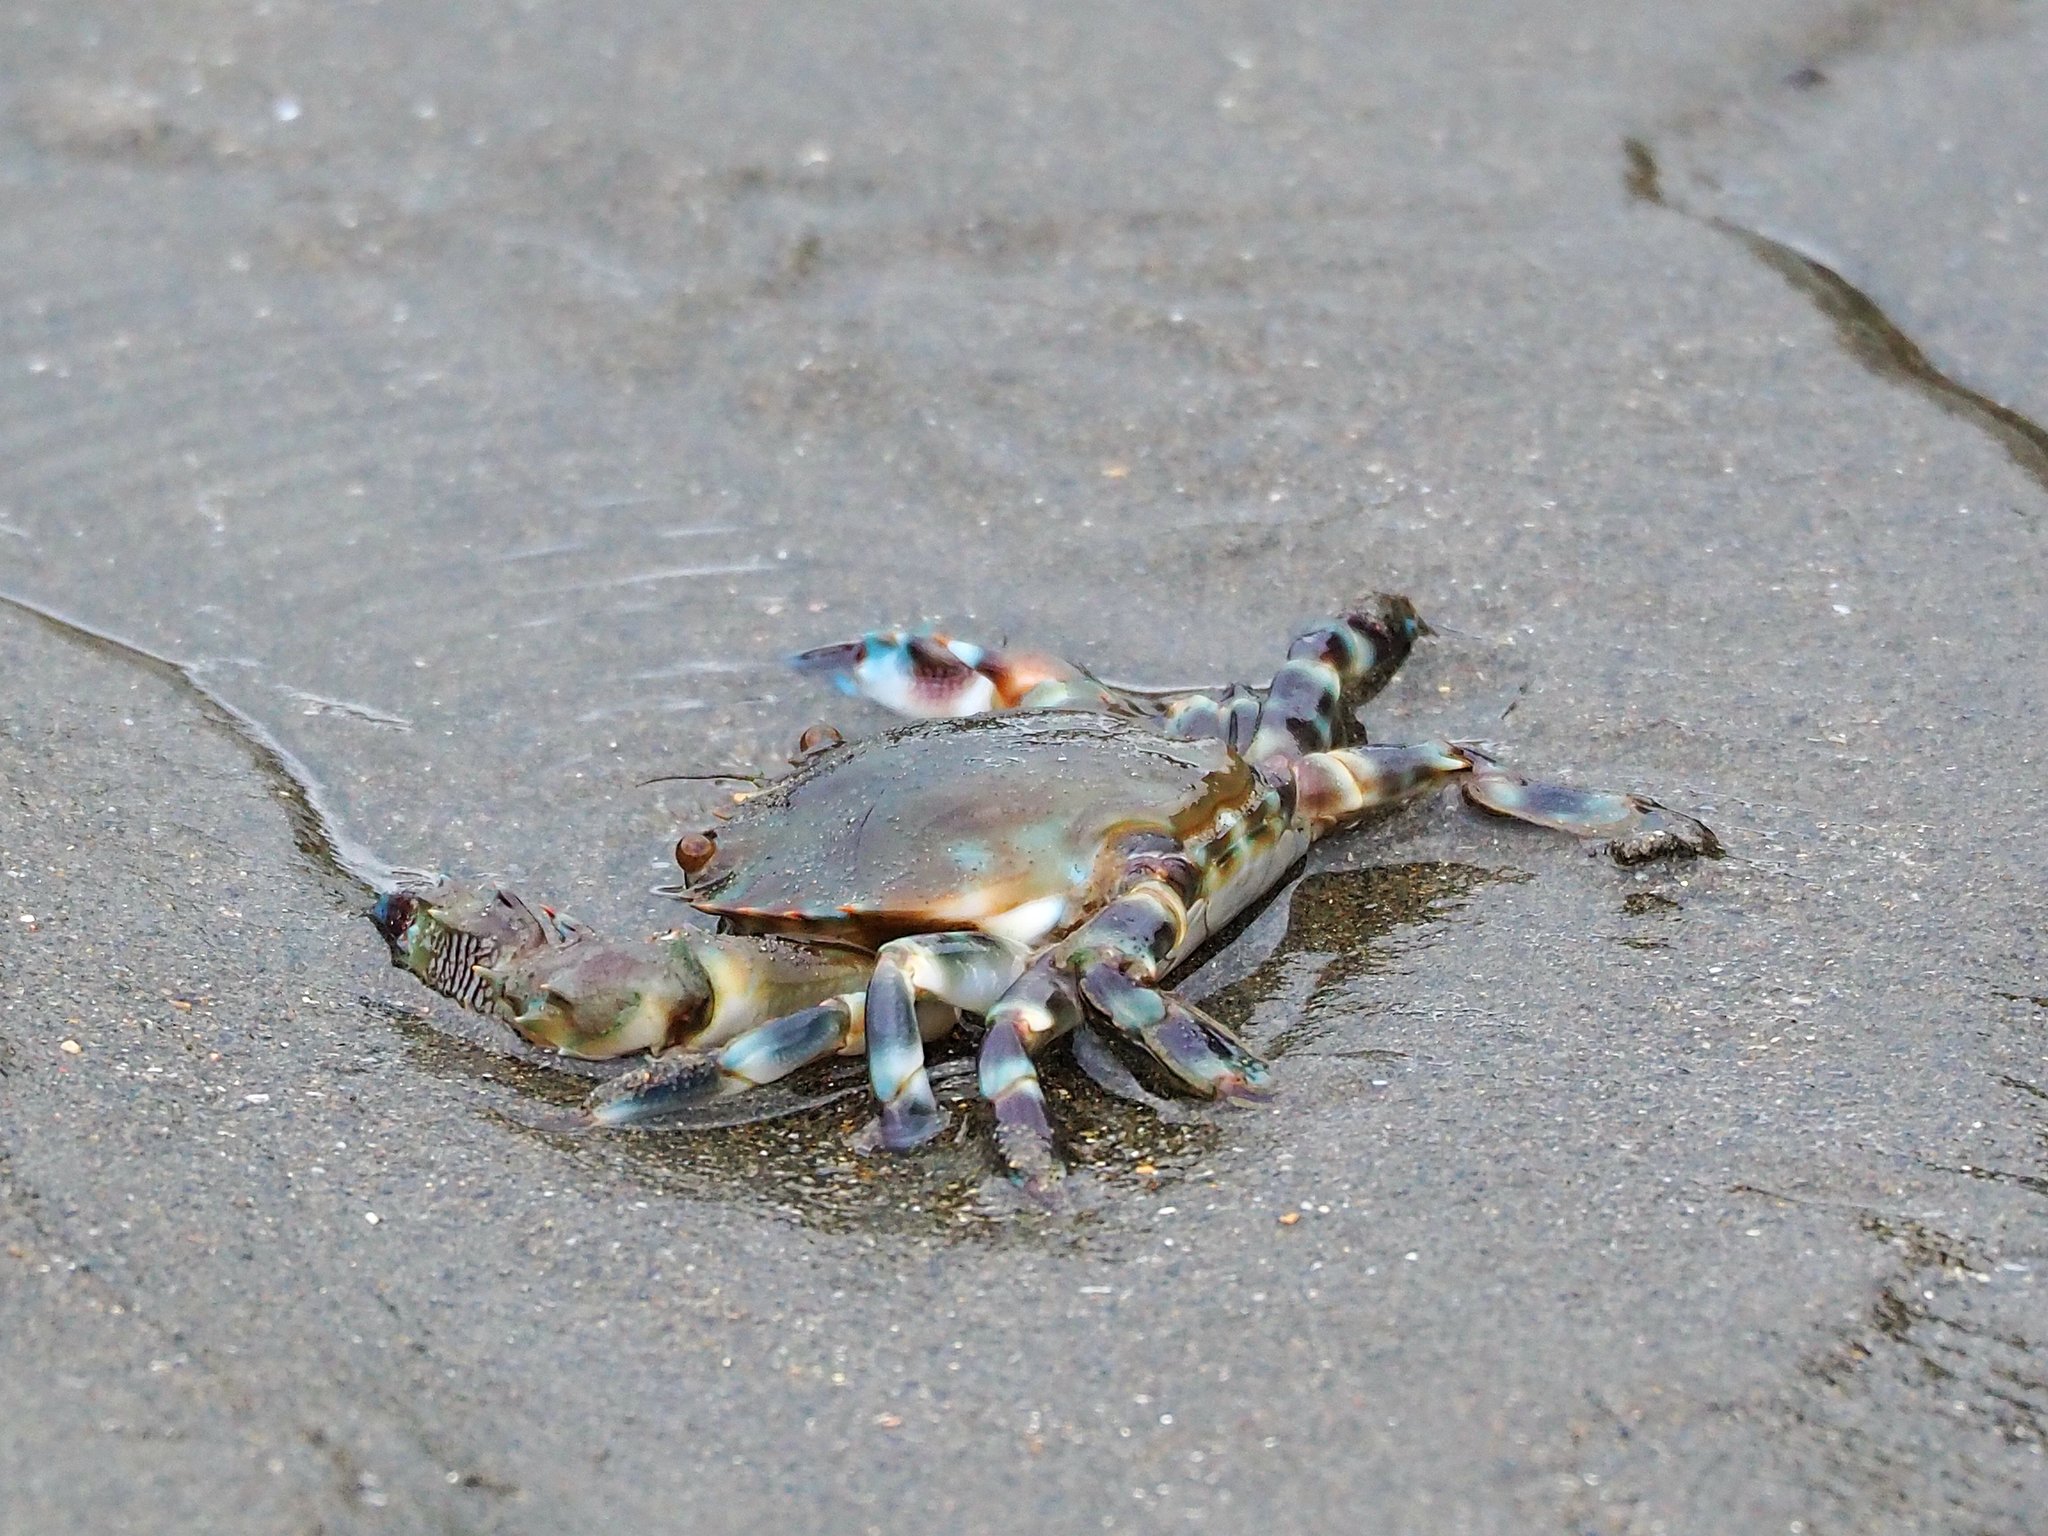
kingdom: Animalia
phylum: Arthropoda
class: Malacostraca
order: Decapoda
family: Portunidae
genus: Charybdis
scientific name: Charybdis annulata
